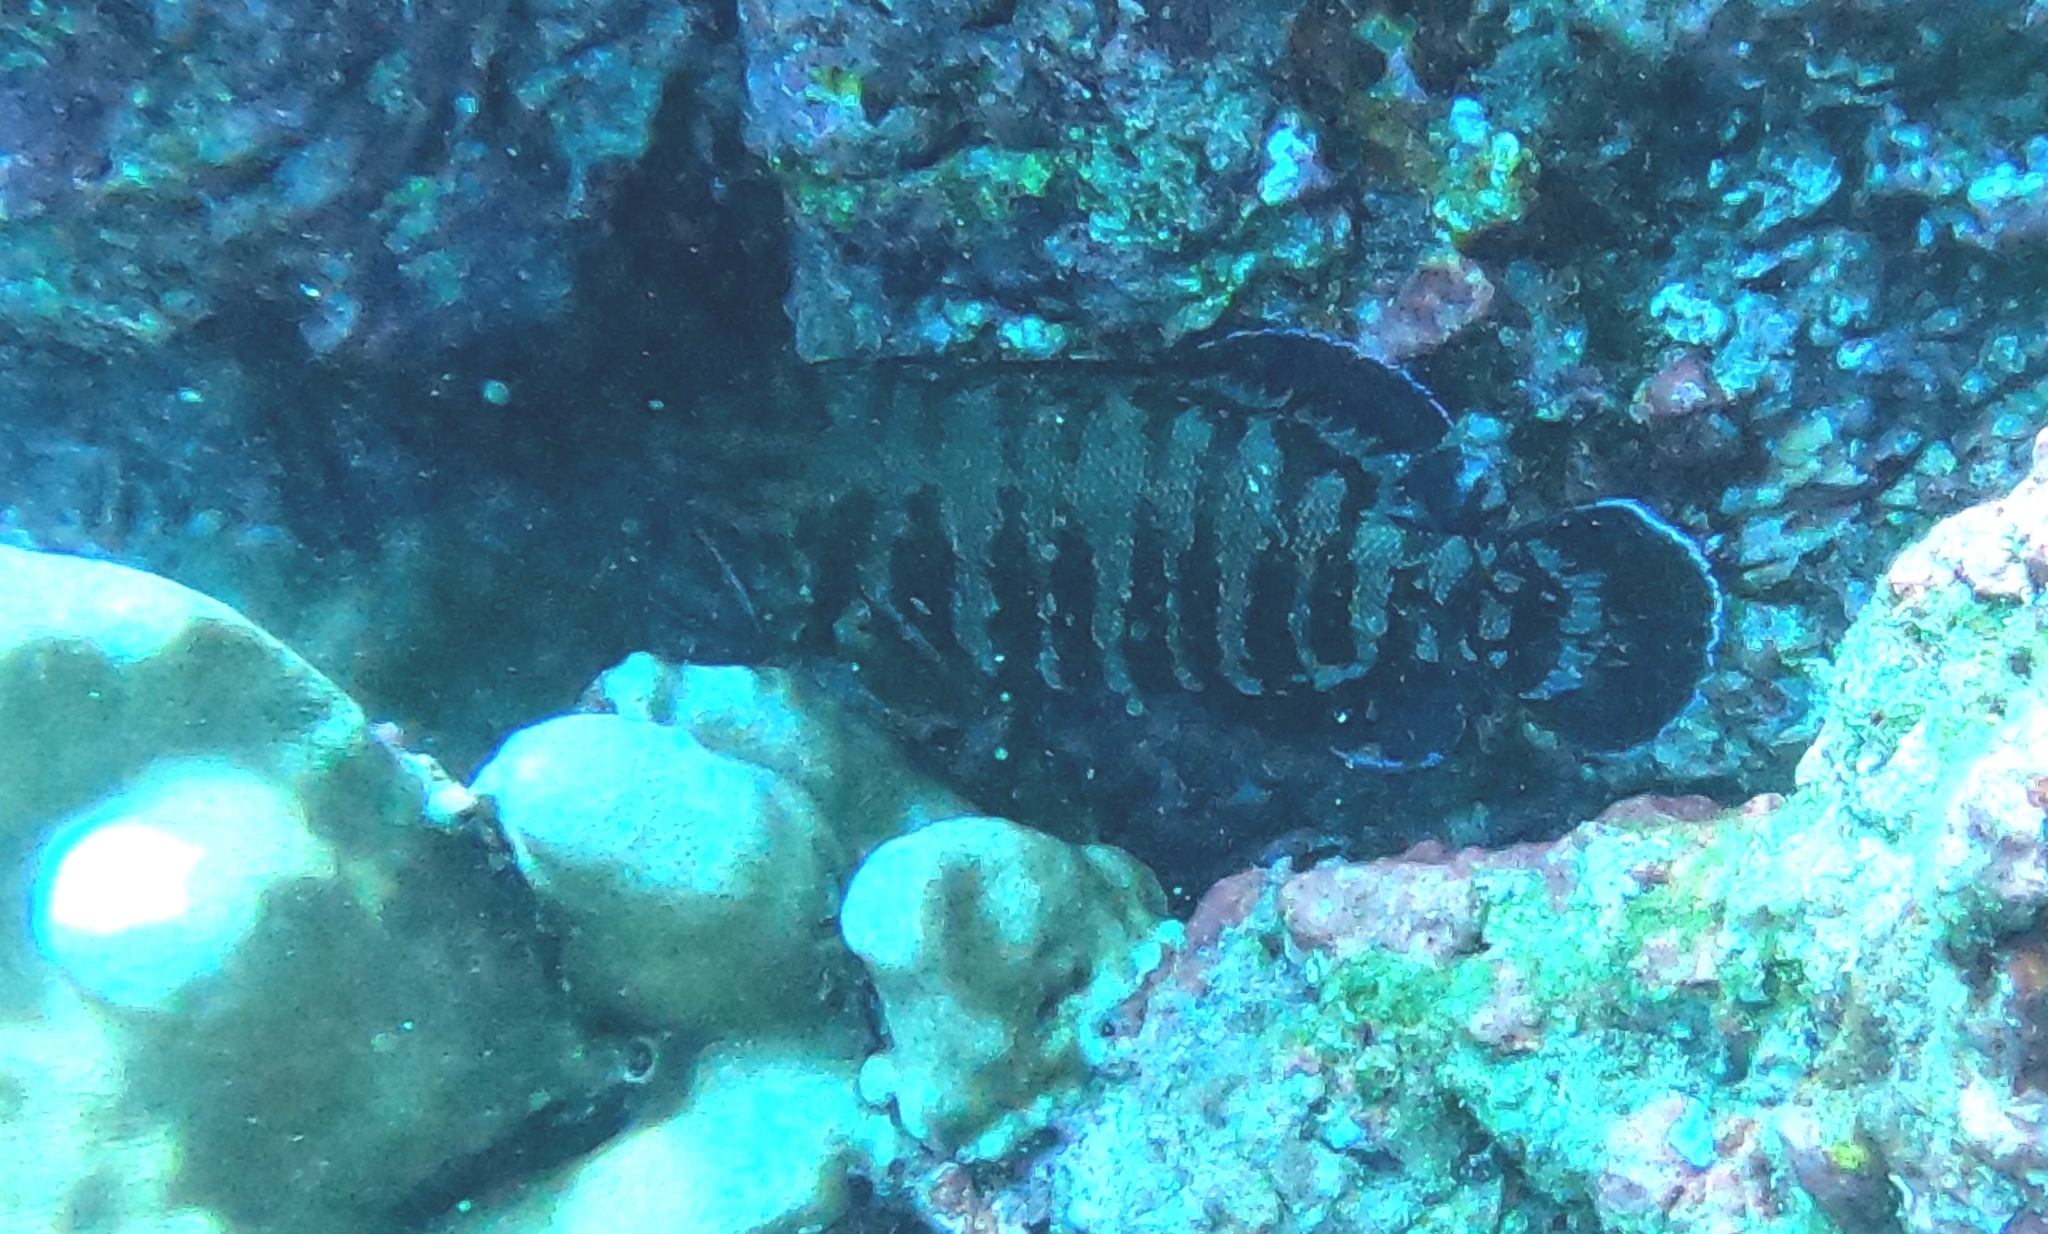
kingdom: Animalia
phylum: Chordata
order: Perciformes
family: Serranidae
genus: Cephalopholis
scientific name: Cephalopholis panamensis
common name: Pacific graysby
